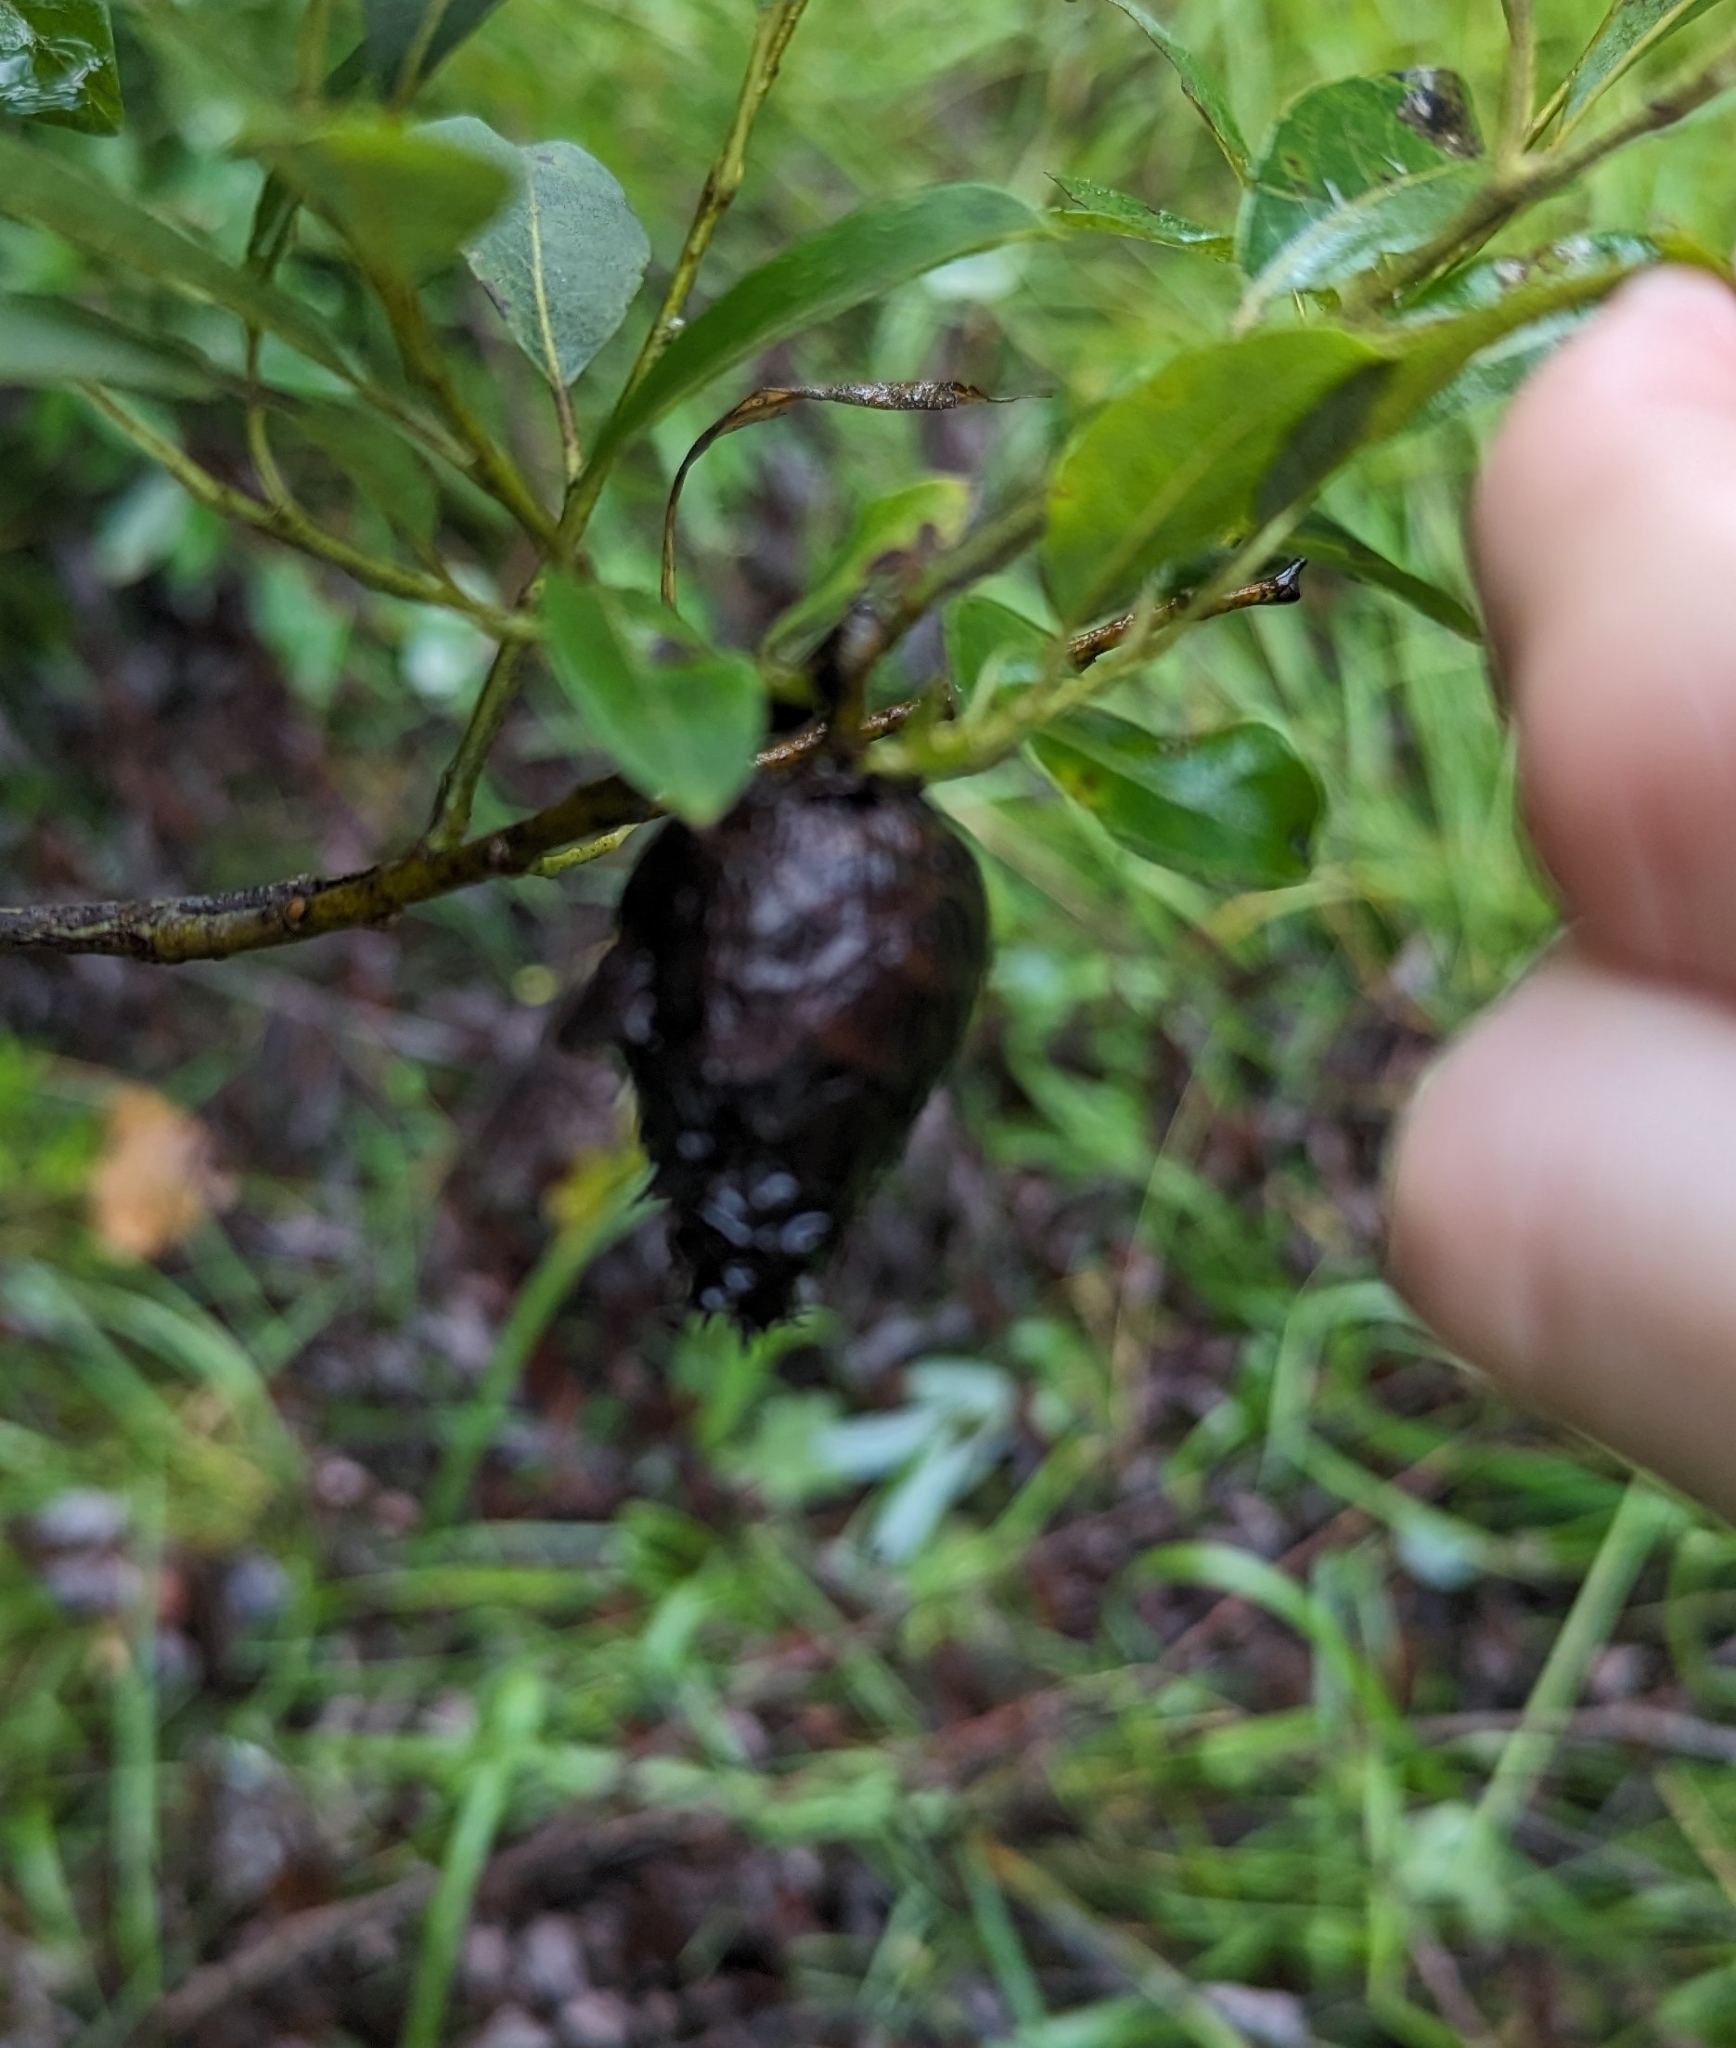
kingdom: Animalia
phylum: Arthropoda
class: Insecta
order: Diptera
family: Cecidomyiidae
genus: Rabdophaga
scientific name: Rabdophaga strobiloides
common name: Willow pinecone gall midge
